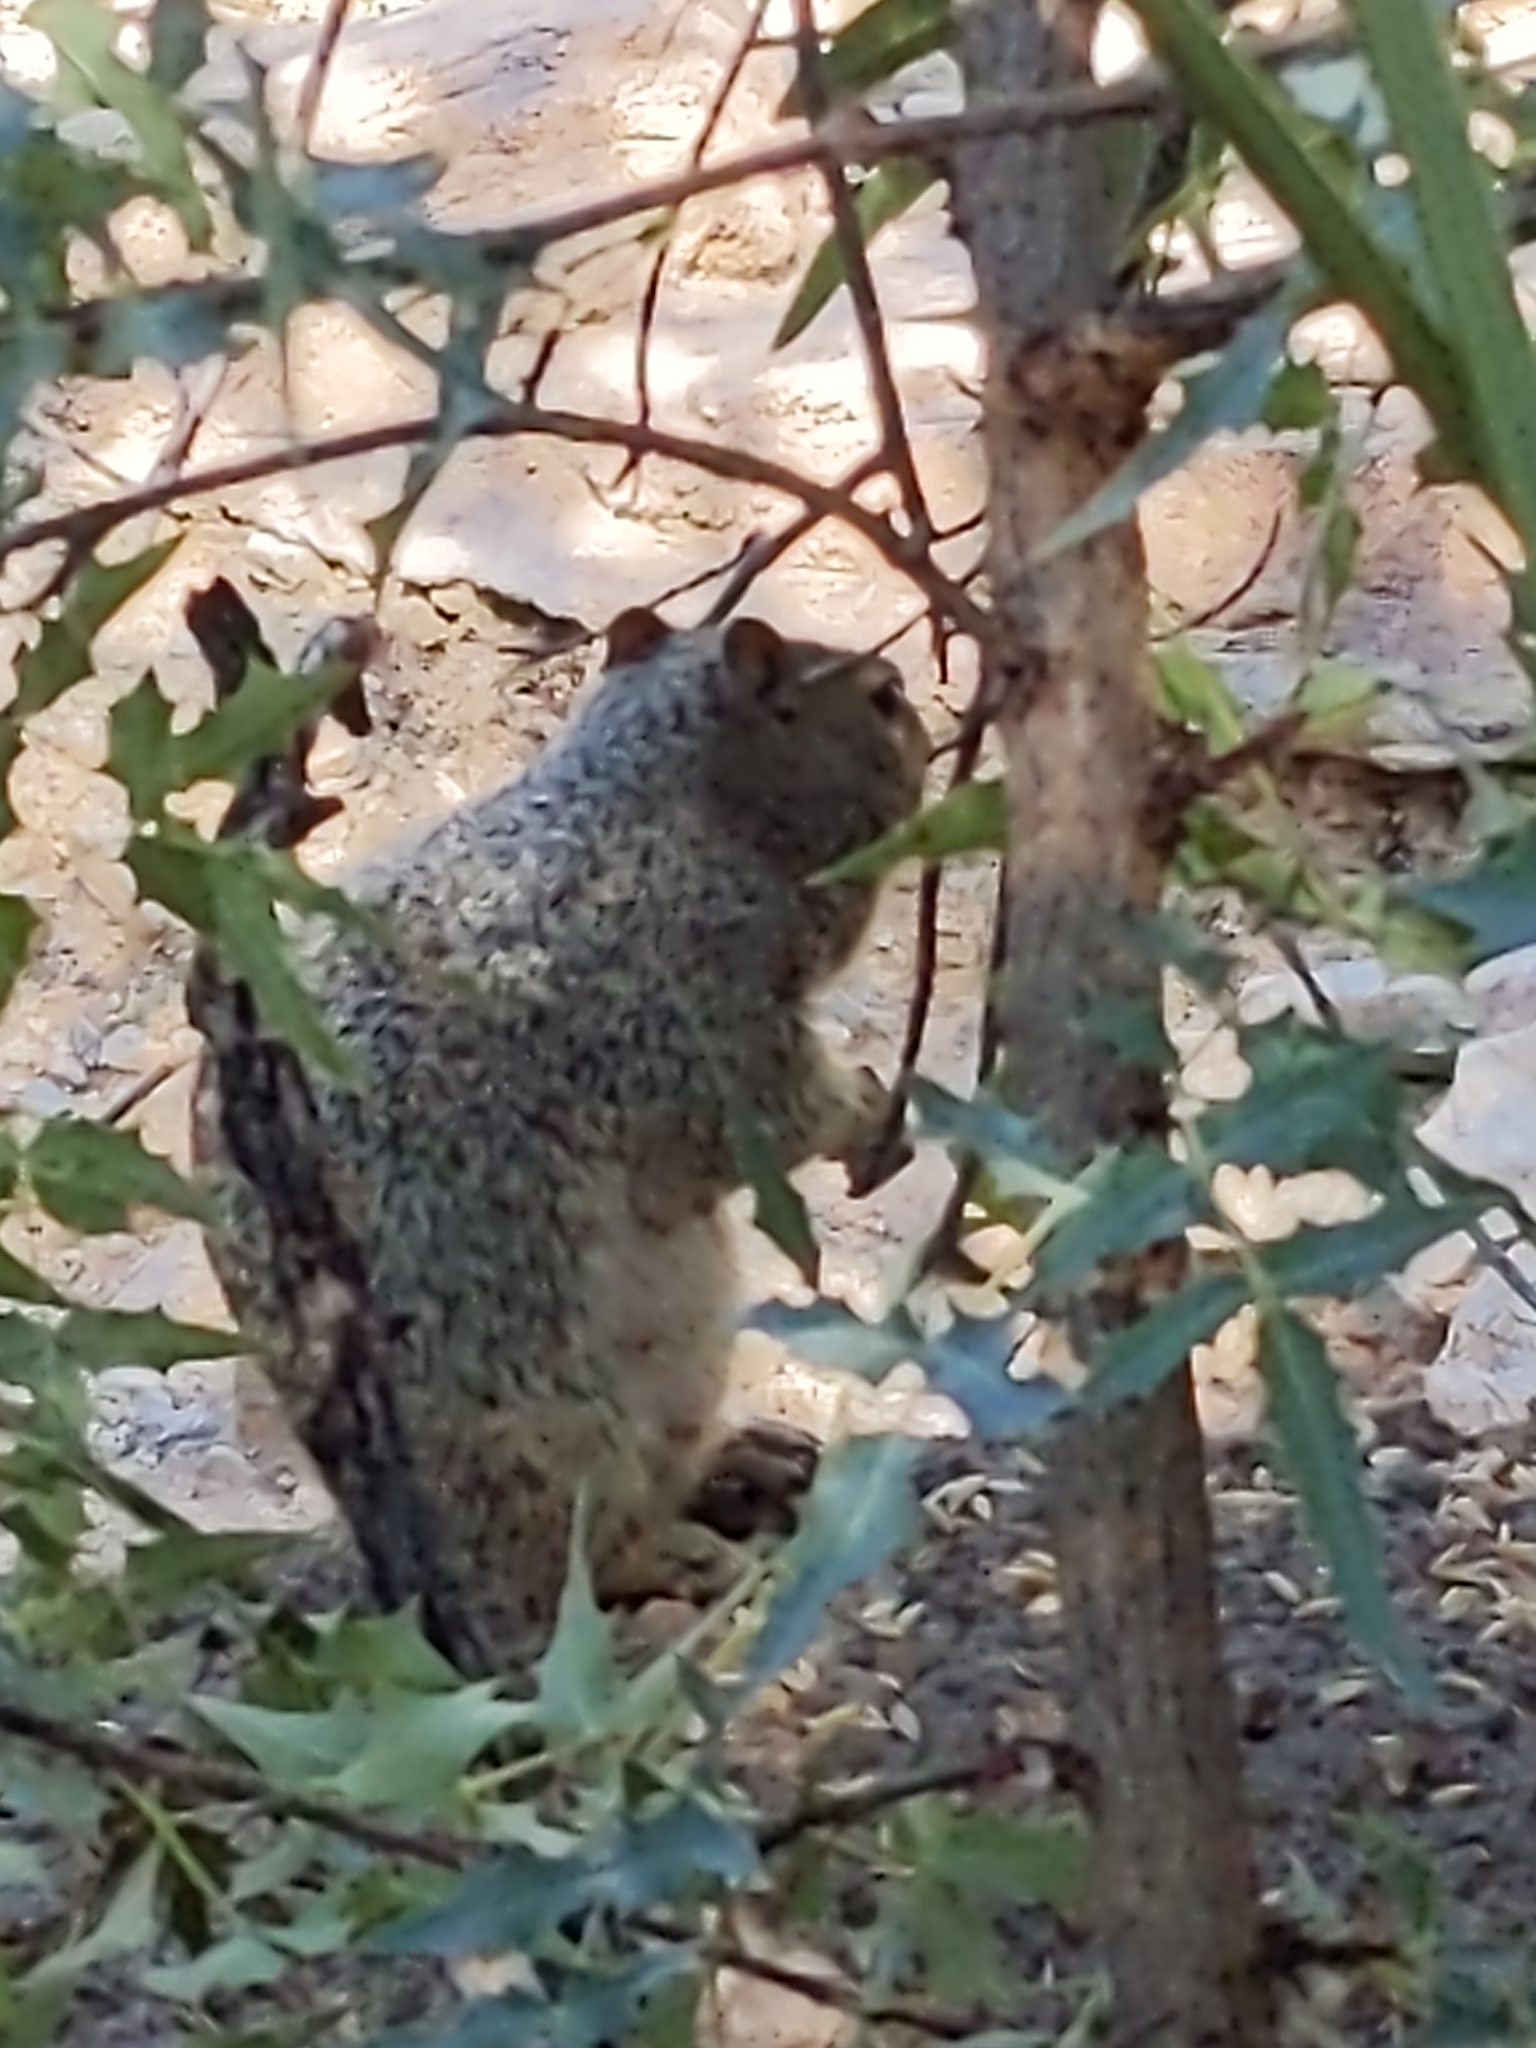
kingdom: Animalia
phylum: Chordata
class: Mammalia
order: Rodentia
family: Sciuridae
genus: Otospermophilus
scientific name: Otospermophilus variegatus
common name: Rock squirrel
